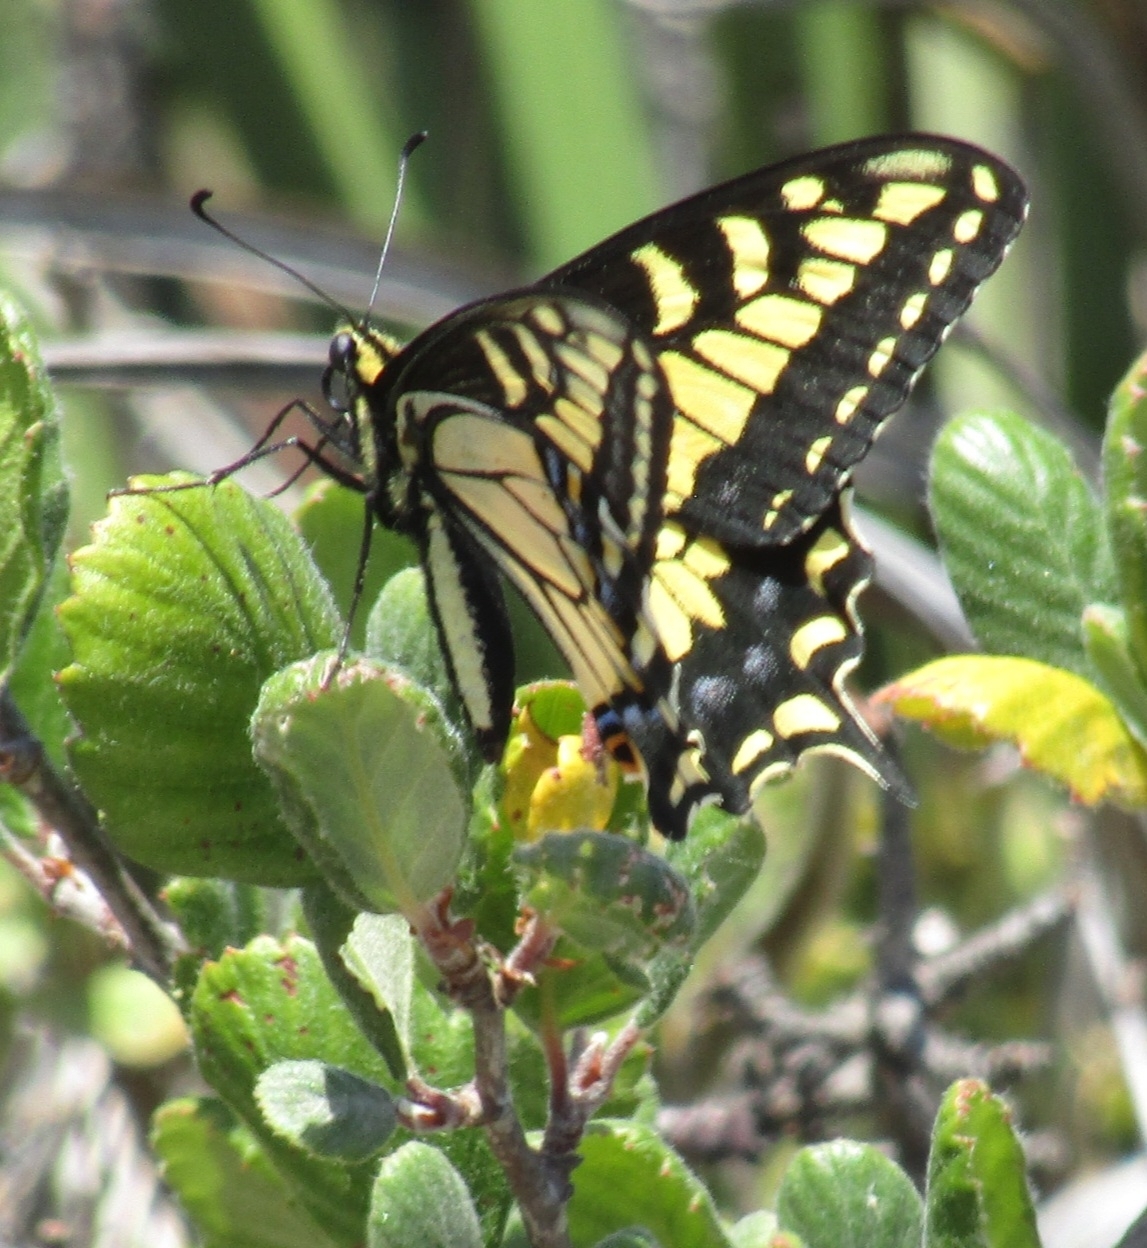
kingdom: Animalia
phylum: Arthropoda
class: Insecta
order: Lepidoptera
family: Papilionidae
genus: Papilio
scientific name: Papilio zelicaon
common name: Anise swallowtail
